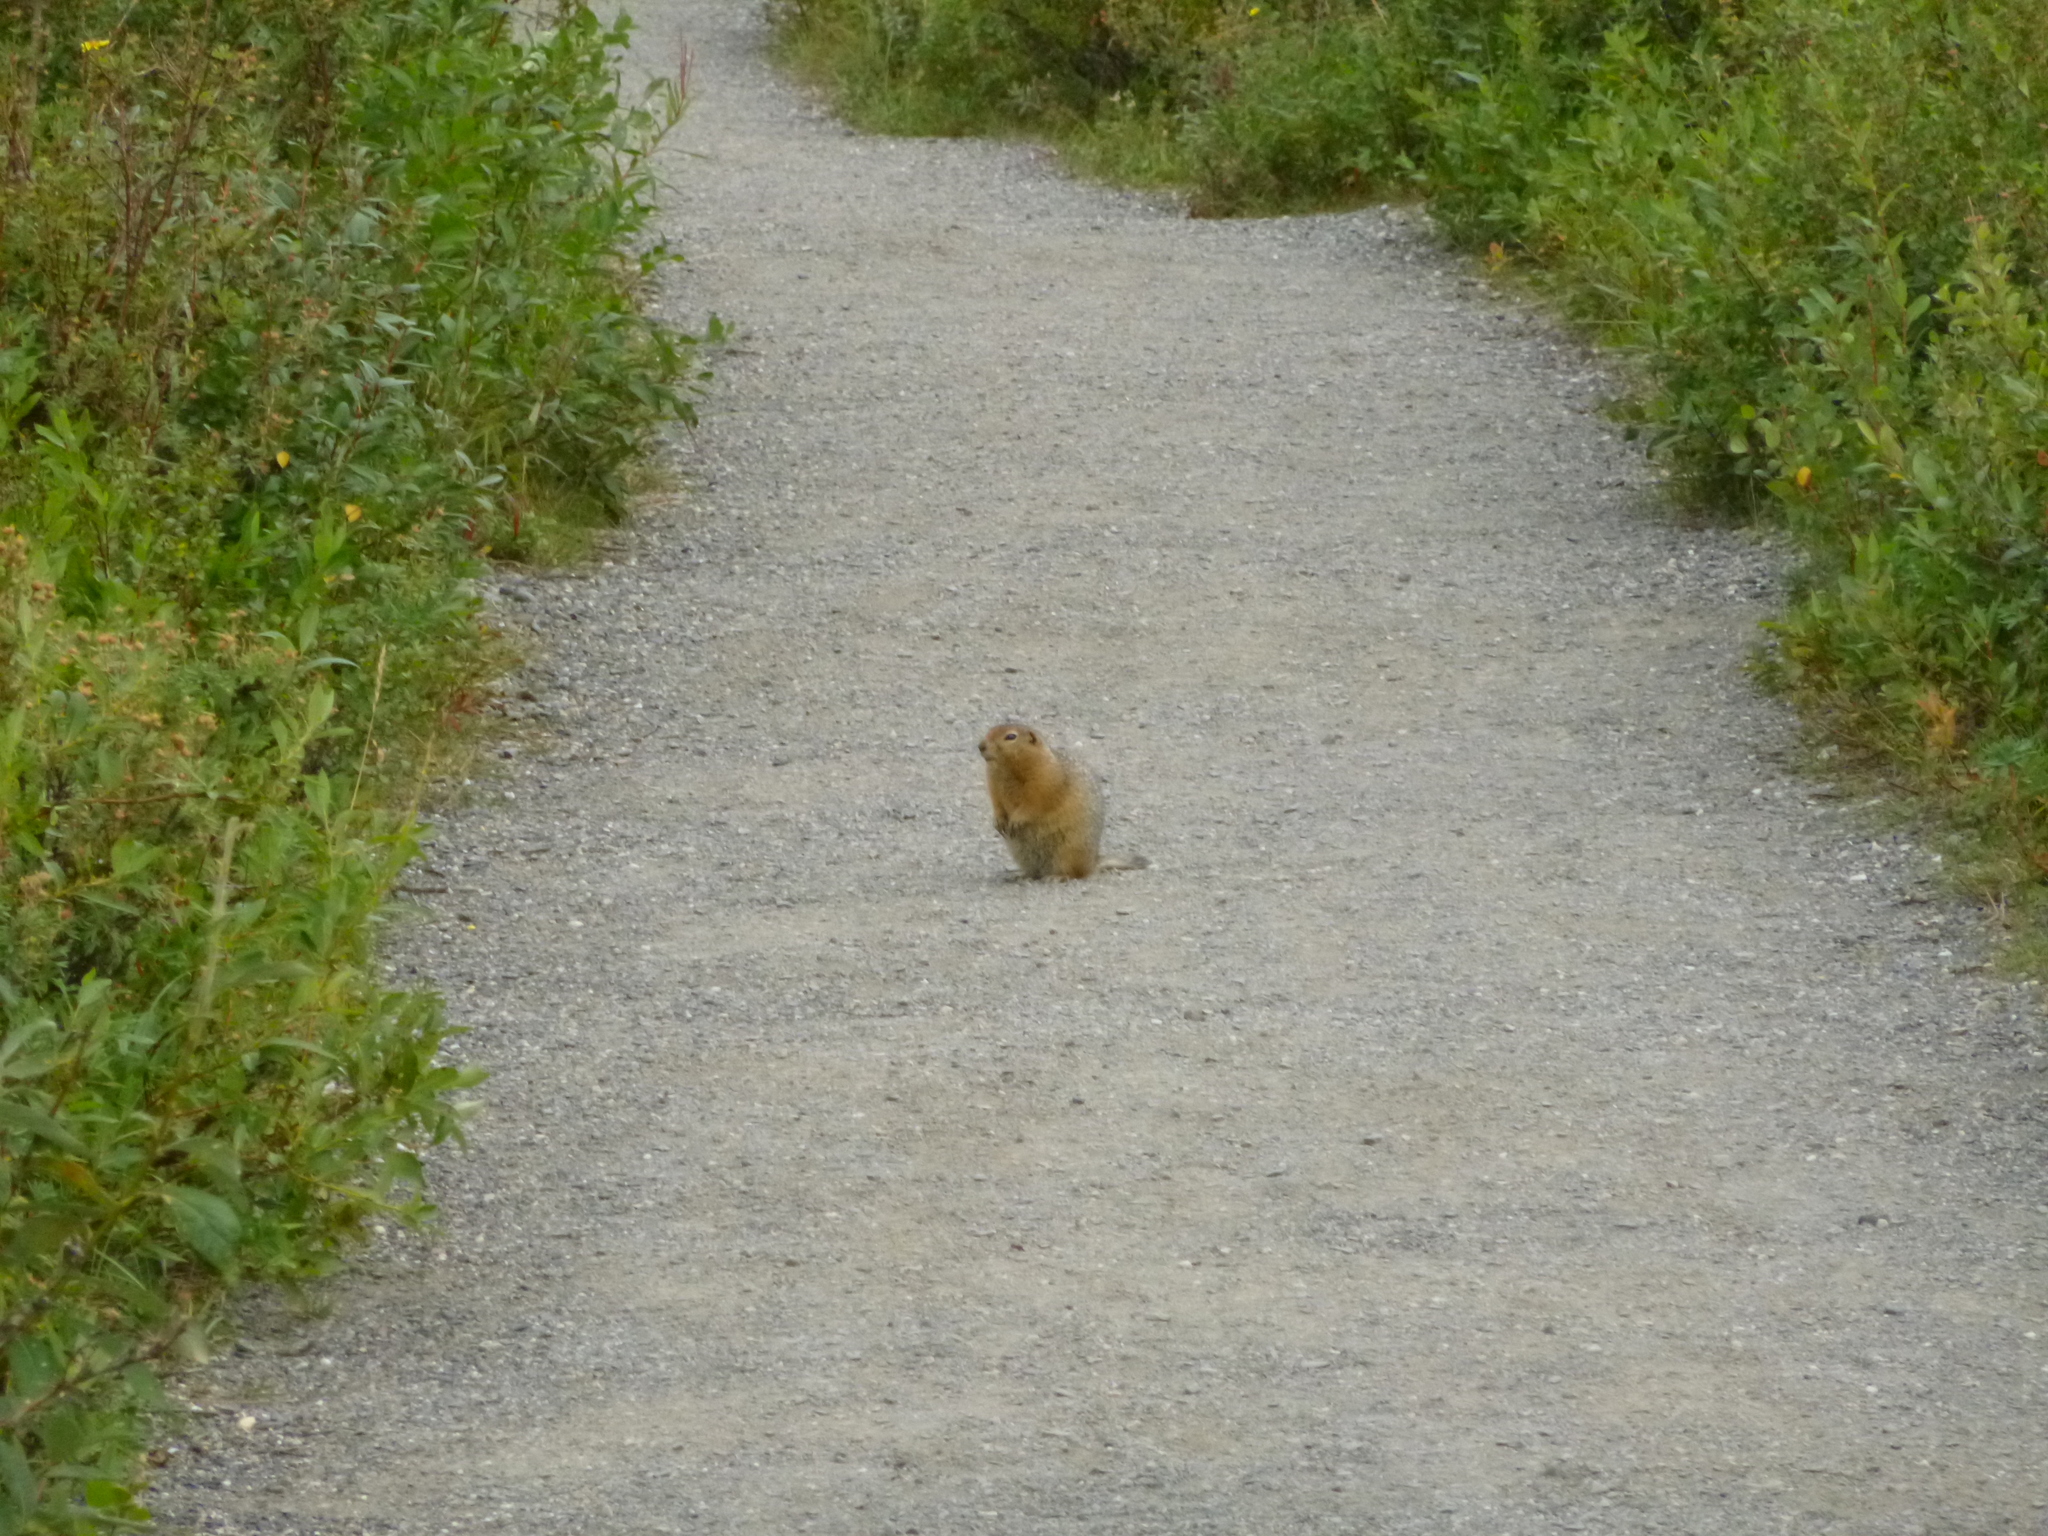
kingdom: Animalia
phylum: Chordata
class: Mammalia
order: Rodentia
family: Sciuridae
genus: Urocitellus
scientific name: Urocitellus parryii
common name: Arctic ground squirrel
